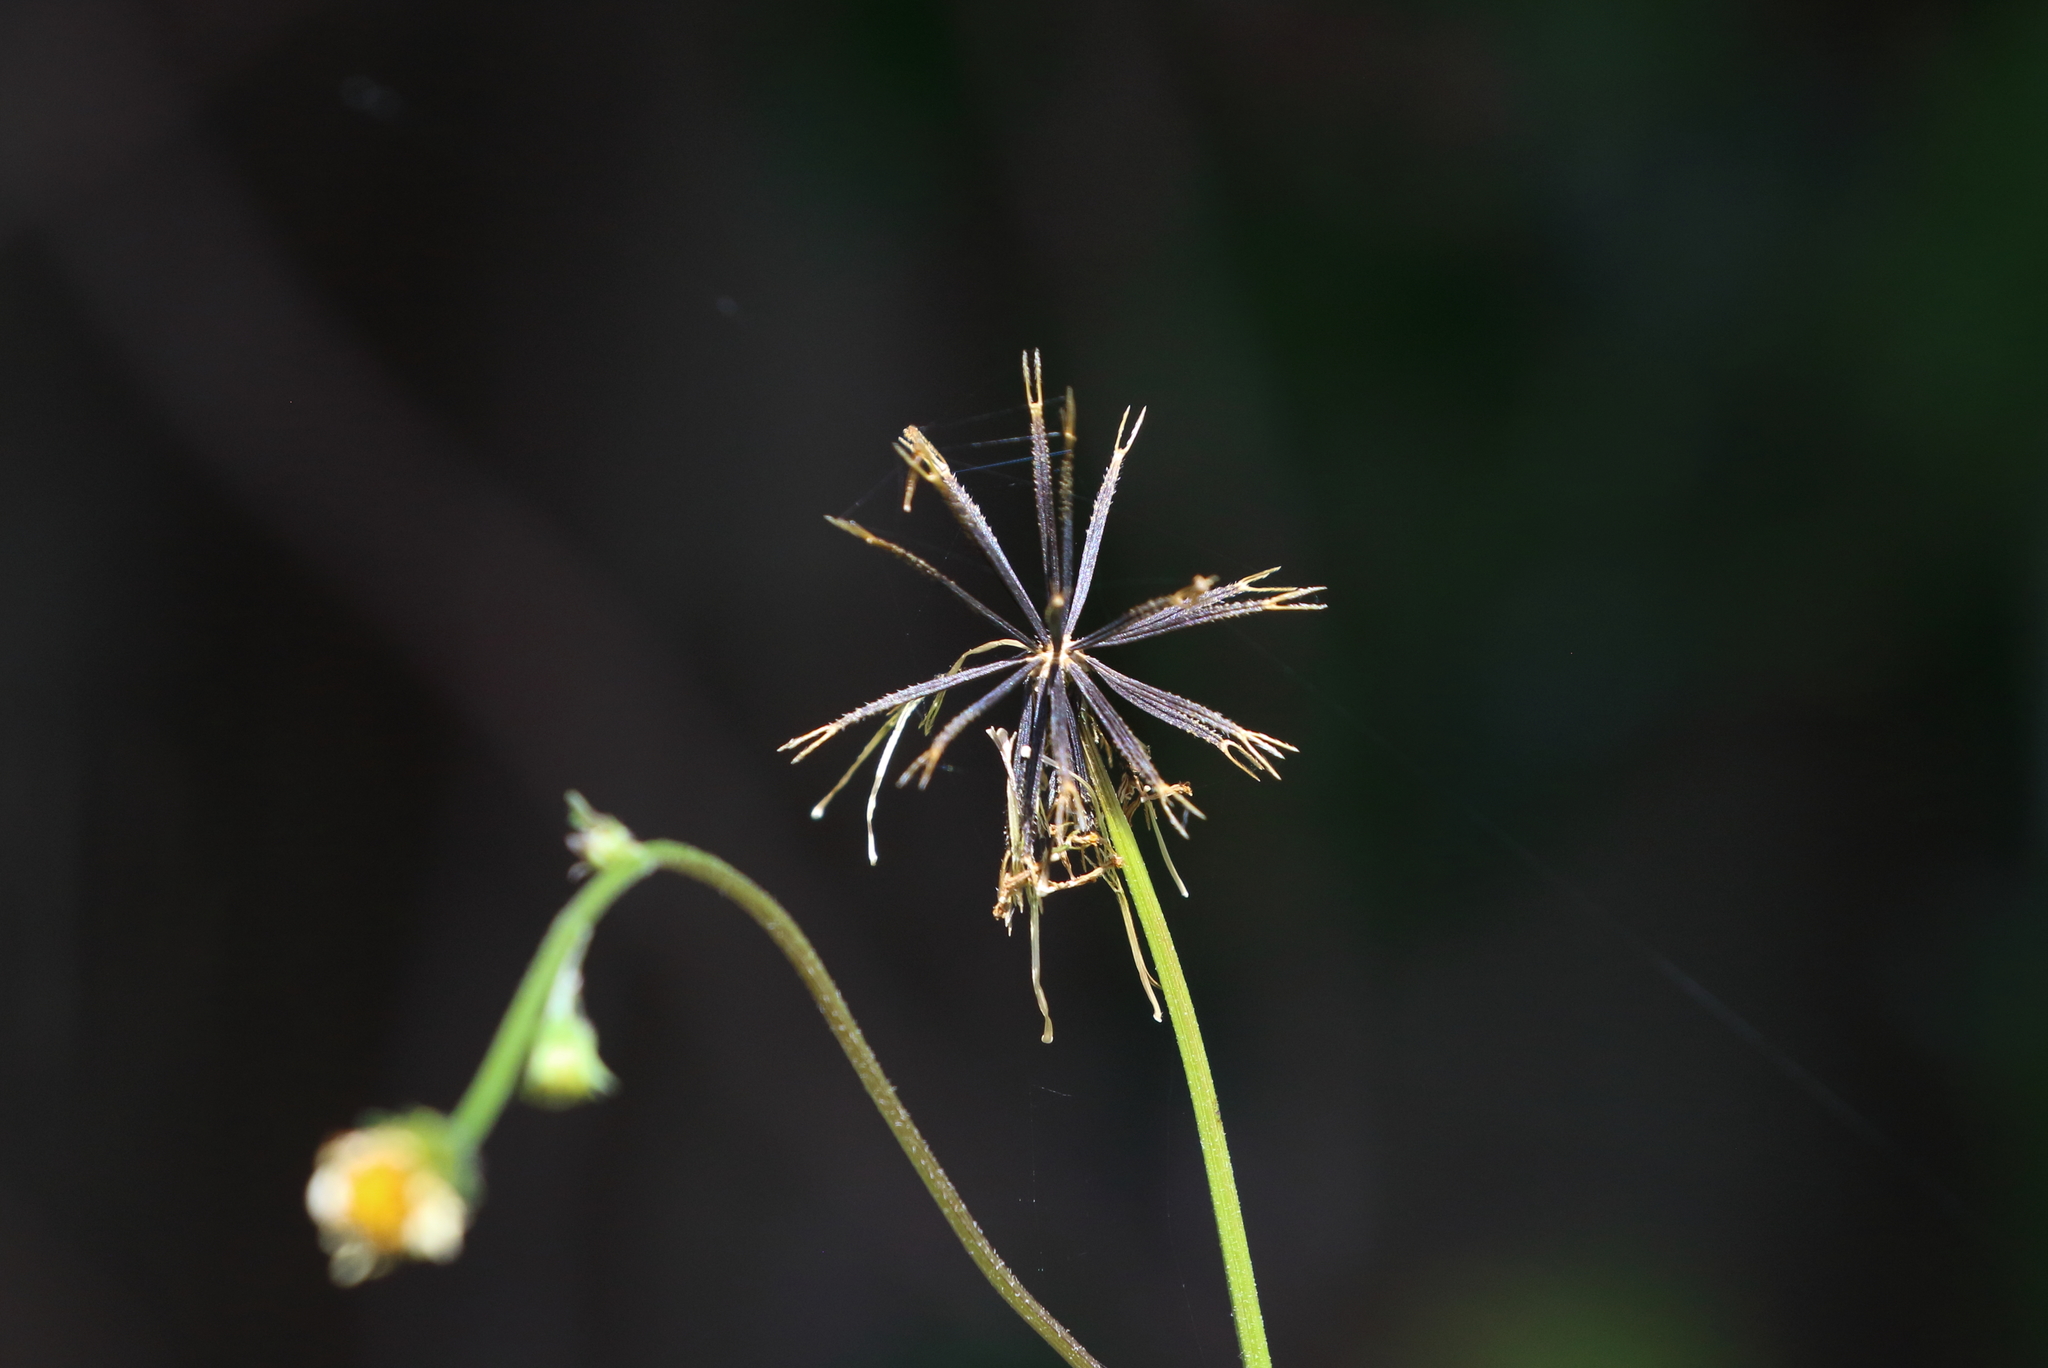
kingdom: Plantae
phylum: Tracheophyta
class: Magnoliopsida
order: Asterales
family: Asteraceae
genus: Bidens
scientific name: Bidens pilosa
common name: Black-jack
